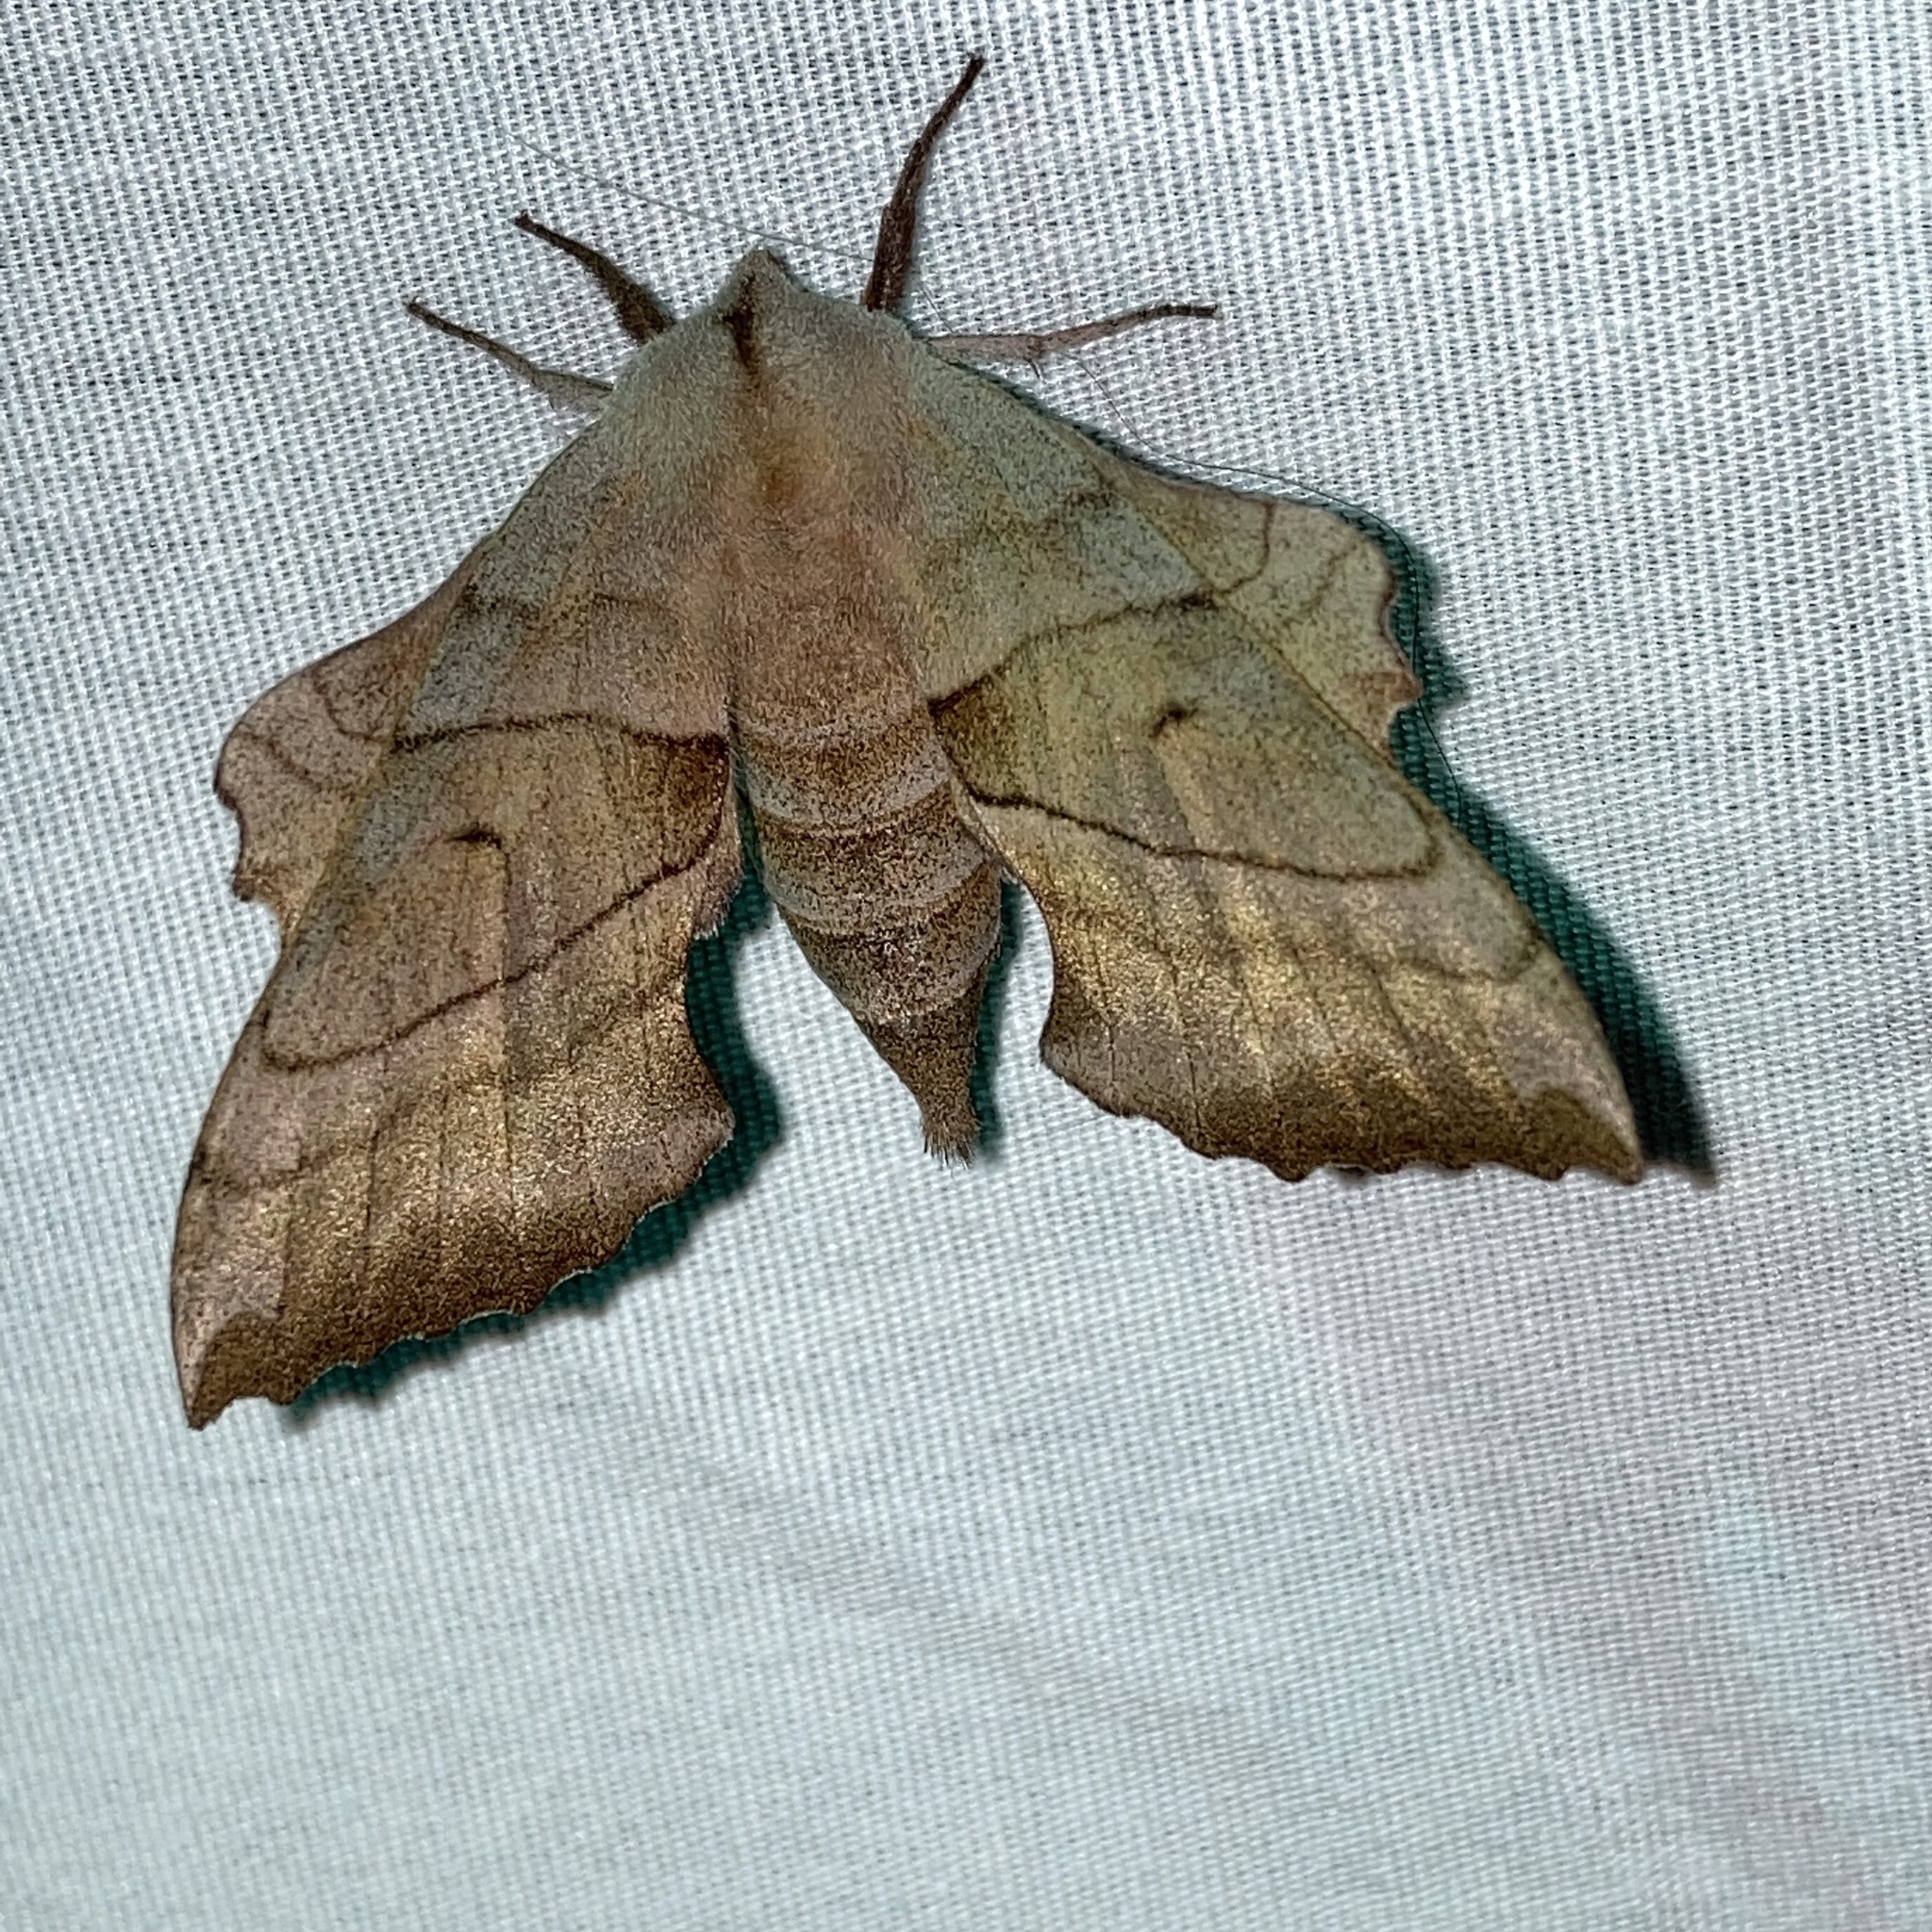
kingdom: Animalia
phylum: Arthropoda
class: Insecta
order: Lepidoptera
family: Sphingidae
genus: Amorpha
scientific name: Amorpha juglandis
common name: Walnut sphinx
